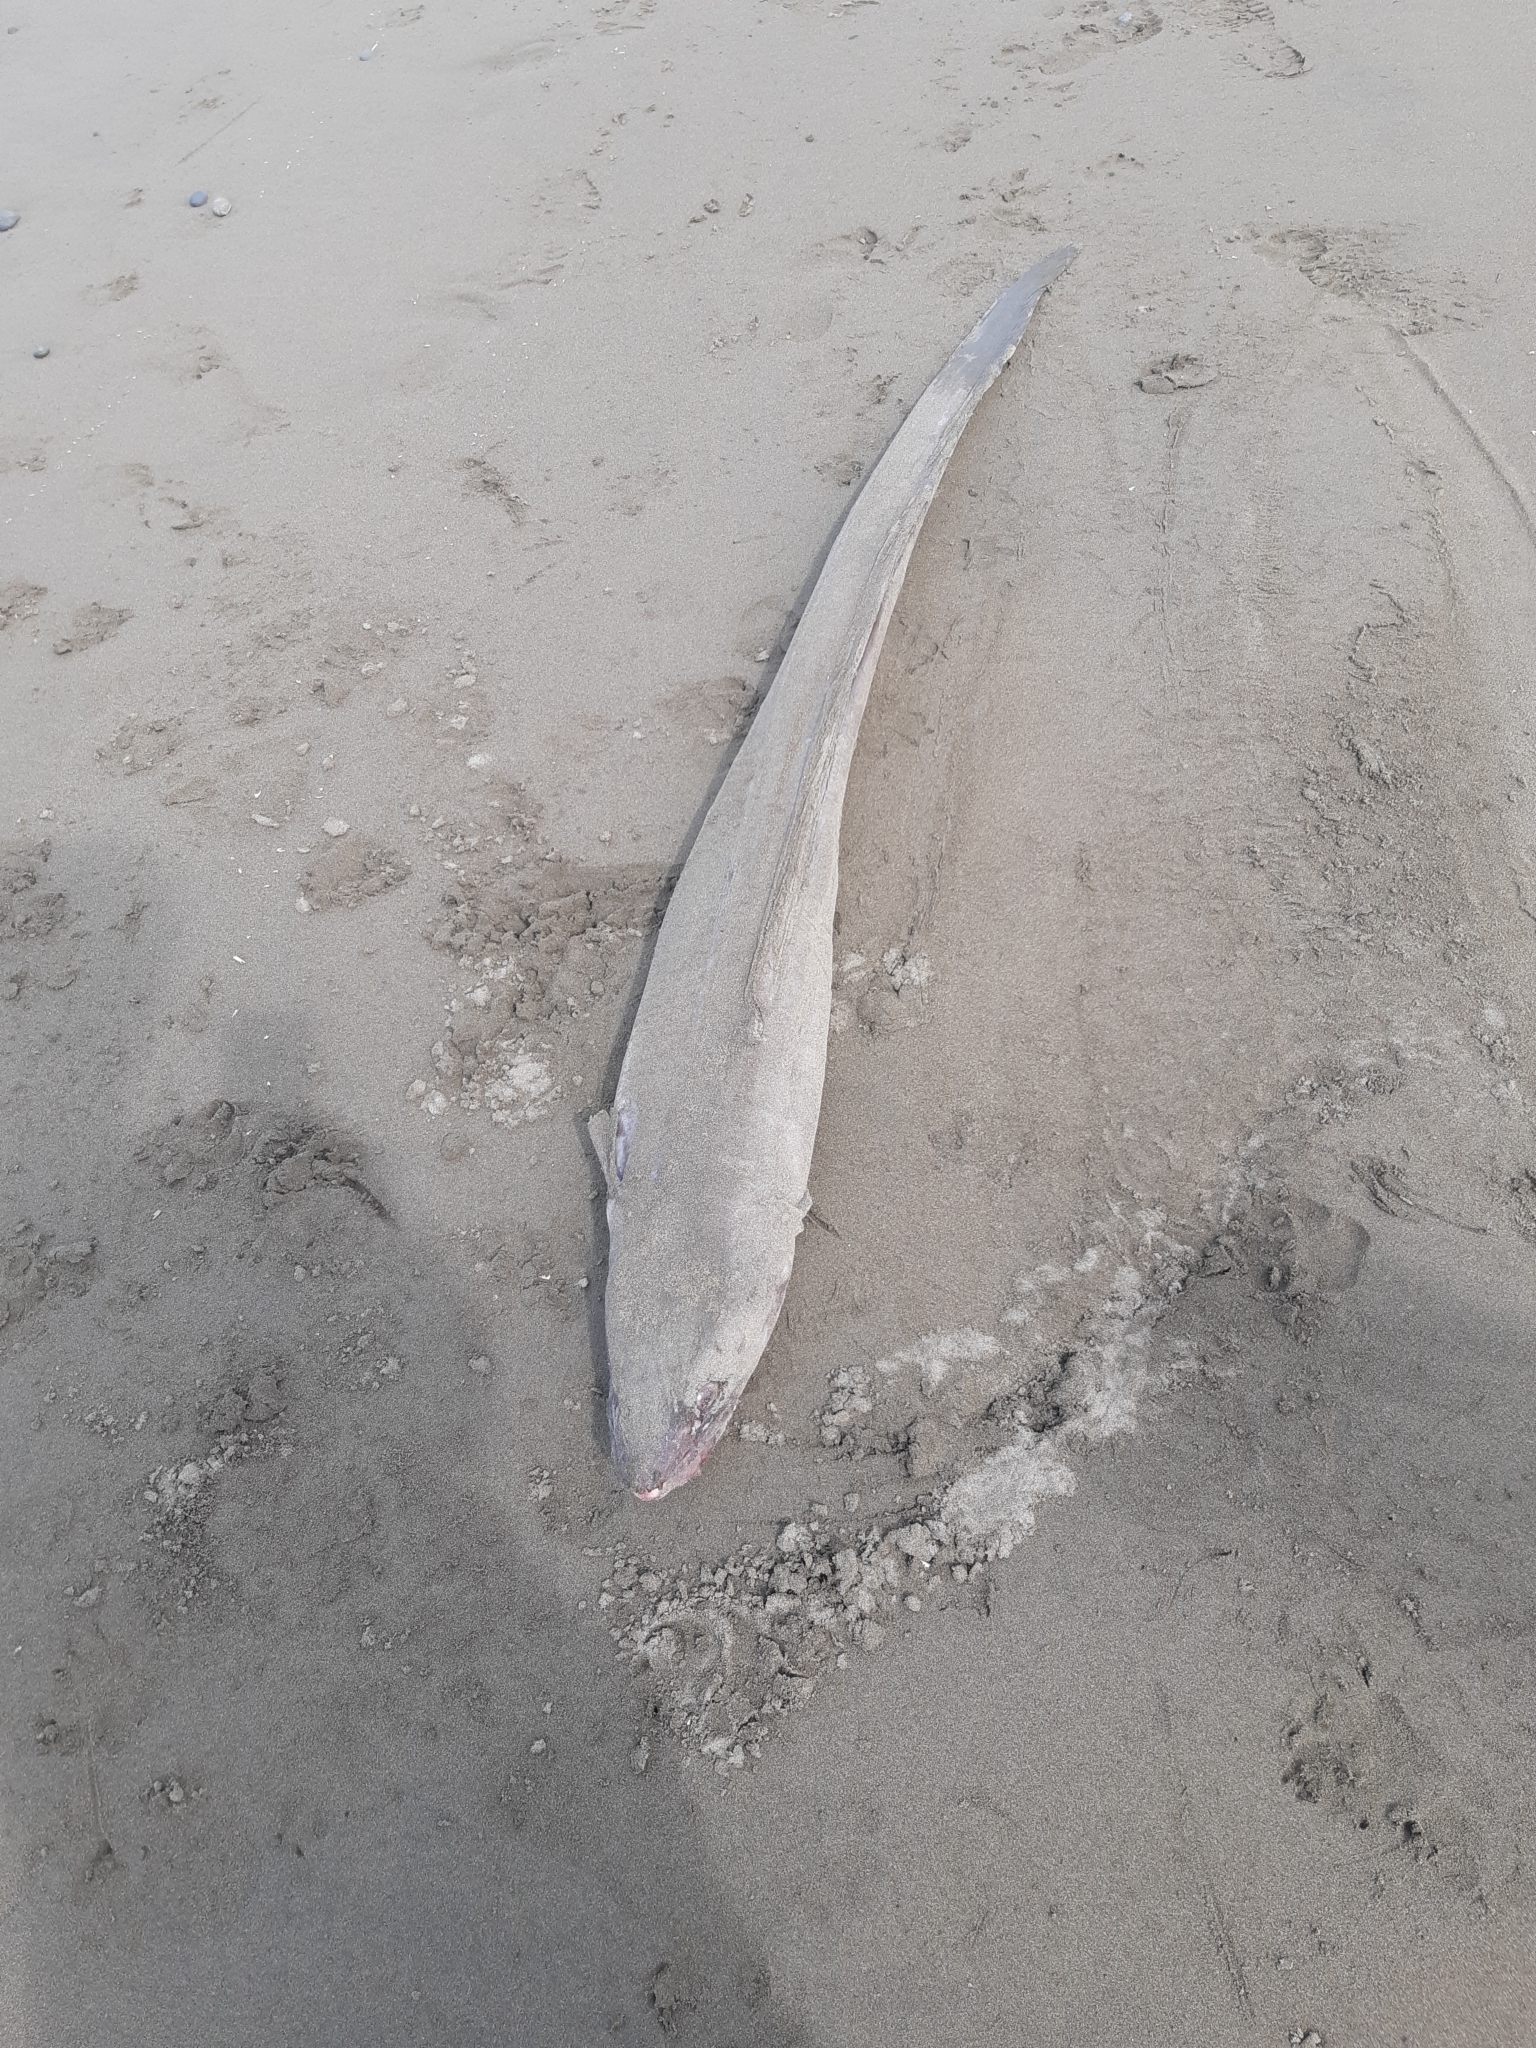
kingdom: Animalia
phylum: Chordata
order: Anguilliformes
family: Congridae
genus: Conger
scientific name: Conger verreauxi
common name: Conger eel
